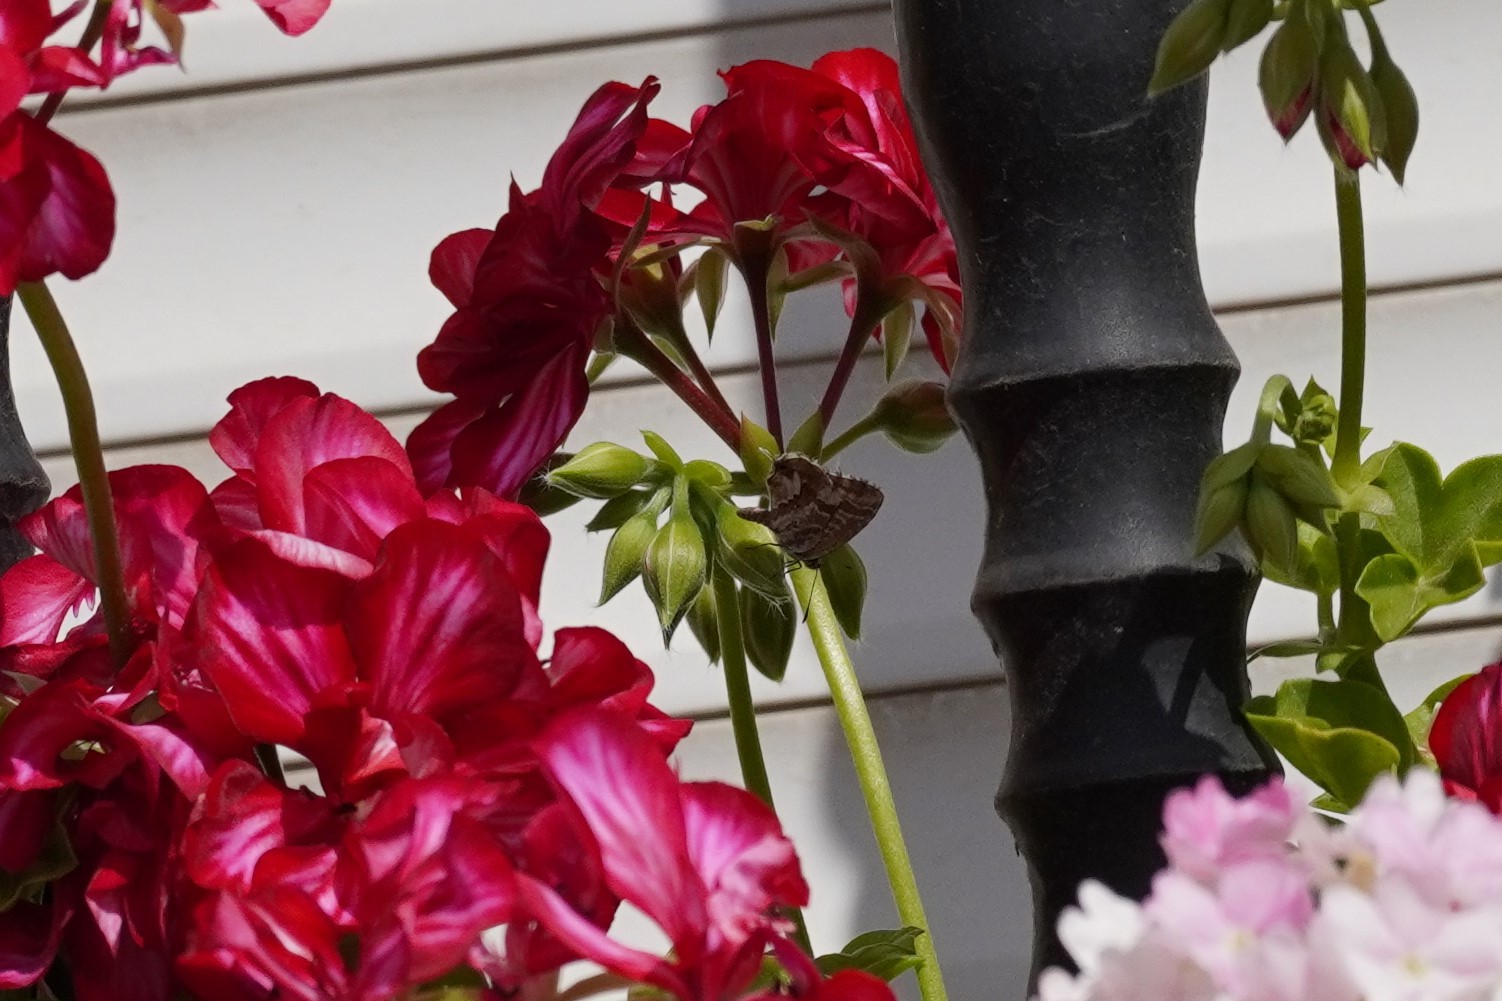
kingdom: Animalia
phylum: Arthropoda
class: Insecta
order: Lepidoptera
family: Lycaenidae
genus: Cacyreus
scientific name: Cacyreus marshalli
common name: Geranium bronze
